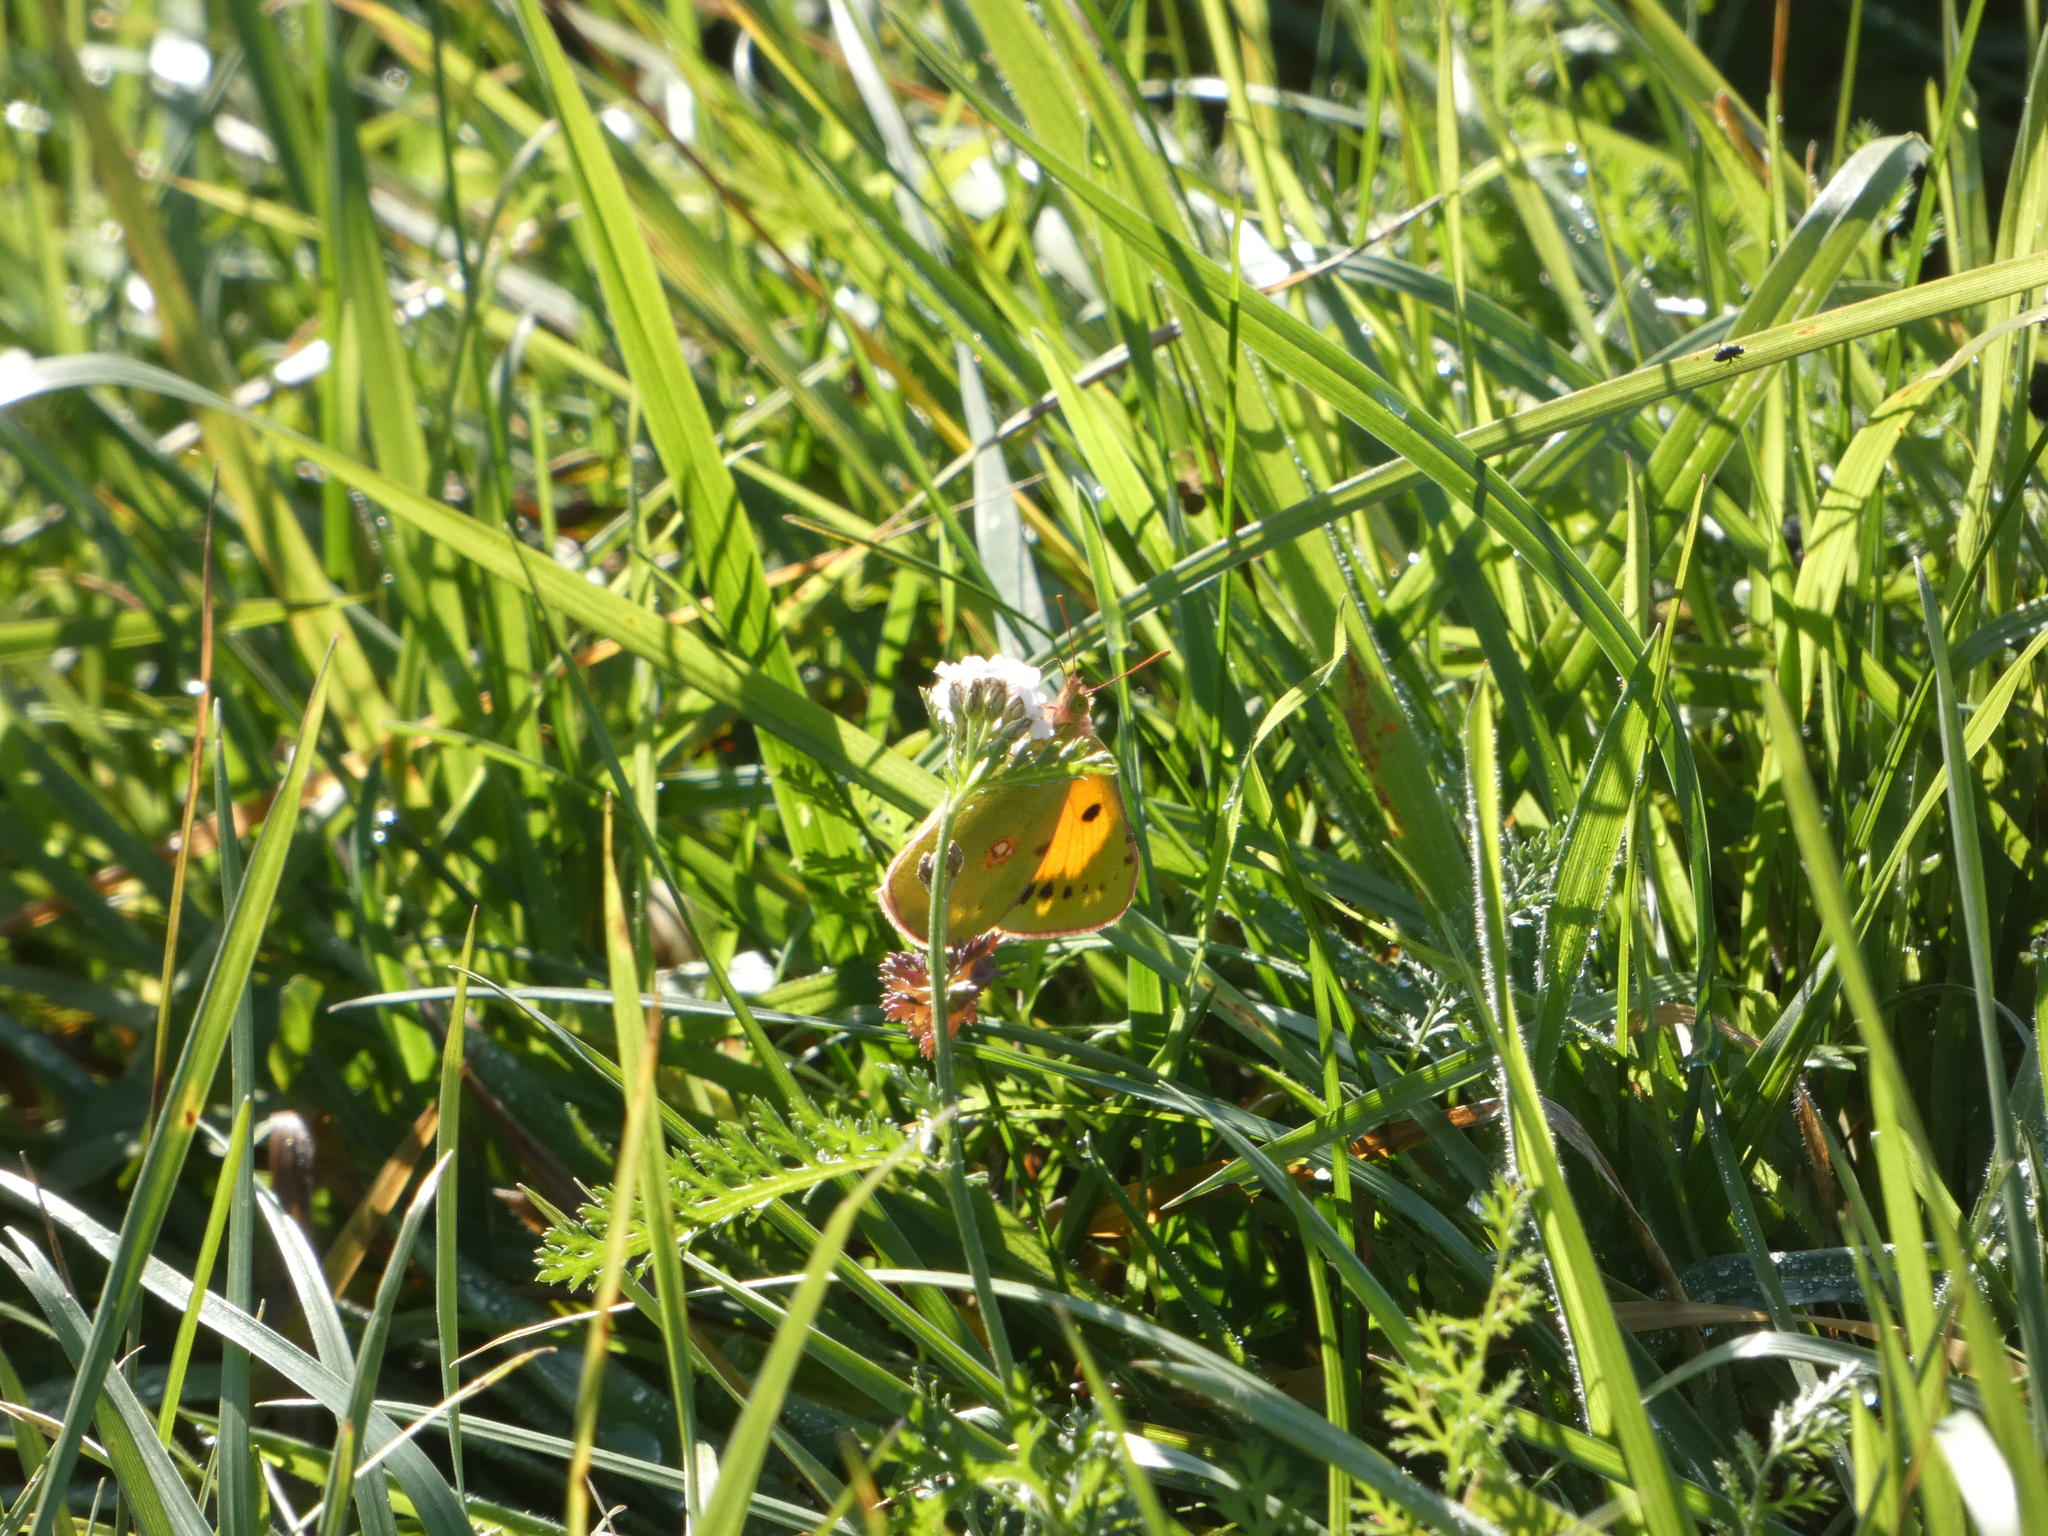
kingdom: Animalia
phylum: Arthropoda
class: Insecta
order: Lepidoptera
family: Pieridae
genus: Colias
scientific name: Colias croceus
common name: Clouded yellow
